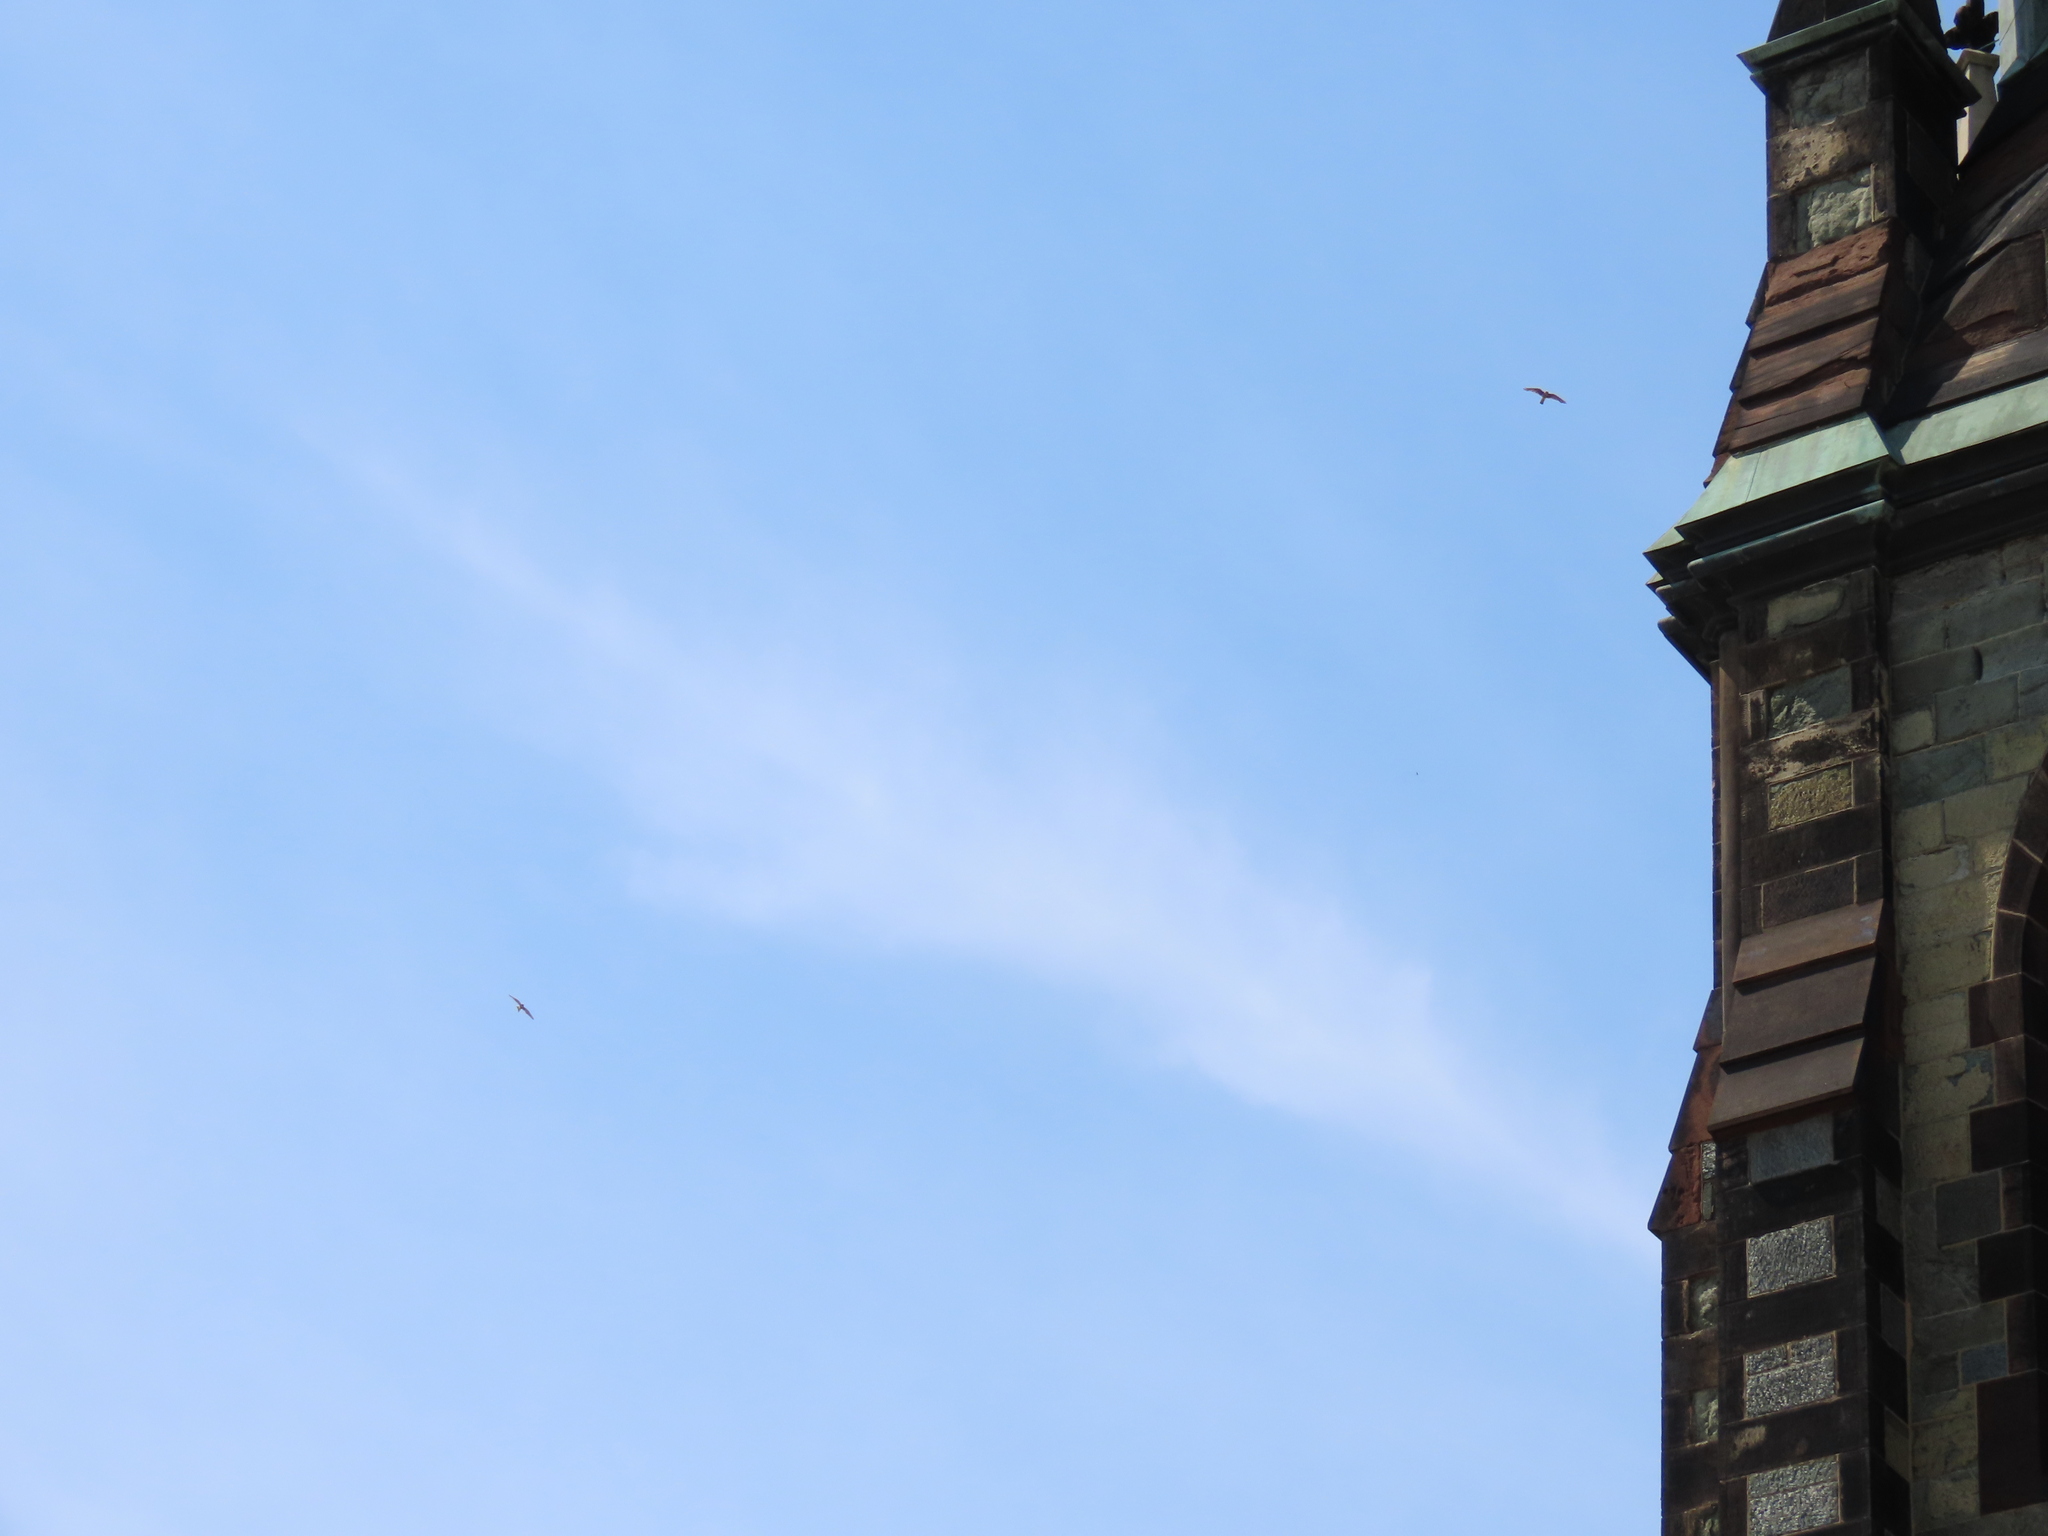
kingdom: Animalia
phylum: Chordata
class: Aves
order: Falconiformes
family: Falconidae
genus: Falco
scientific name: Falco sparverius
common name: American kestrel
